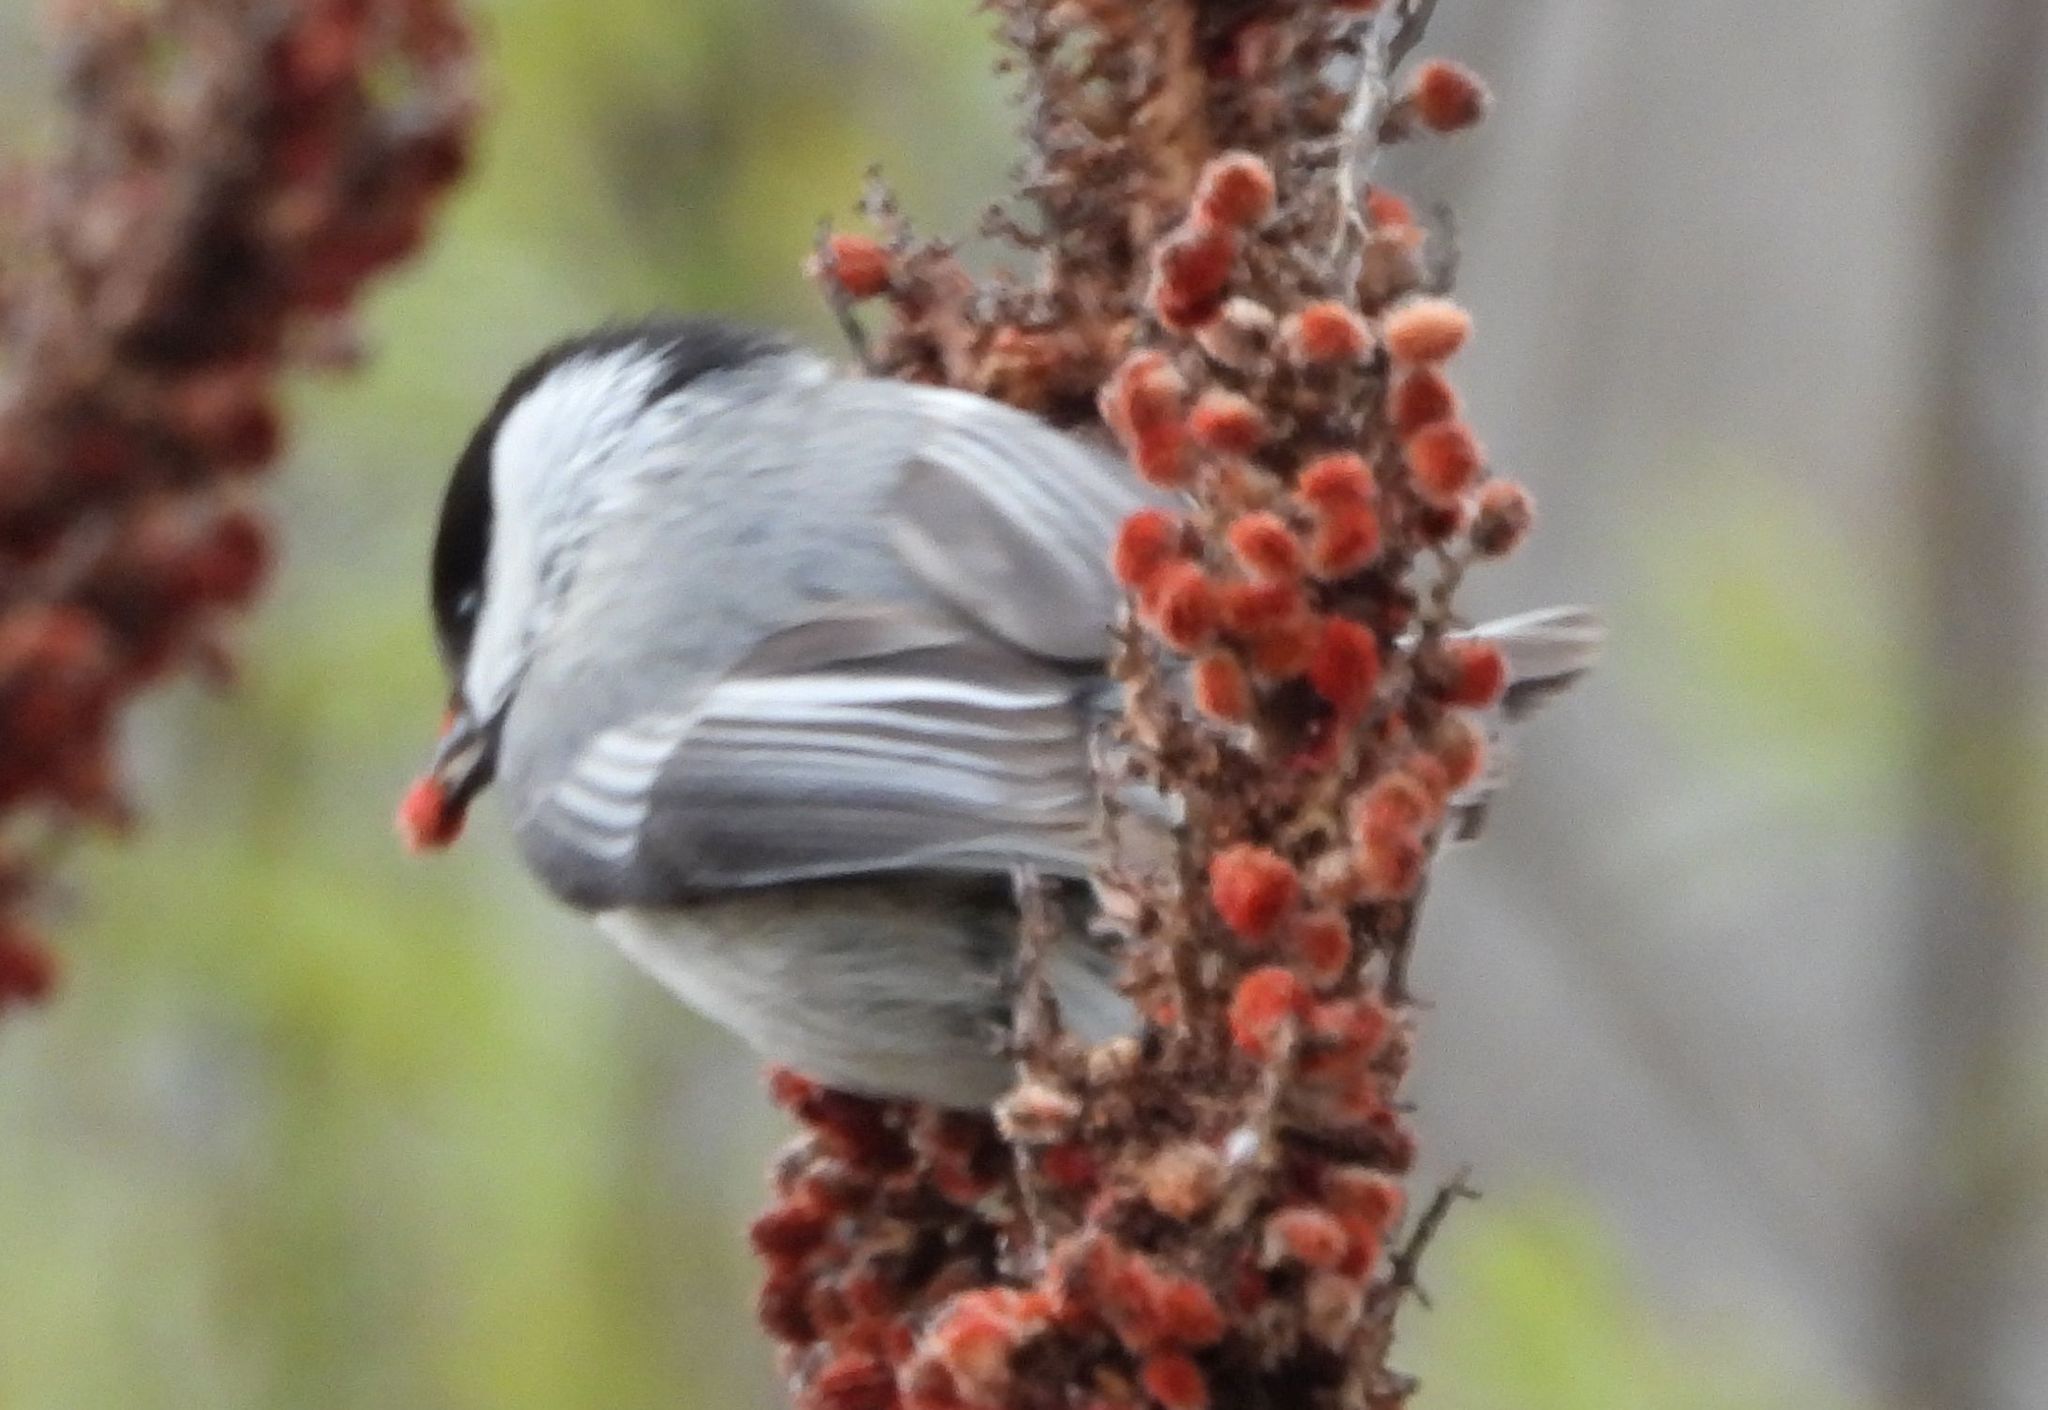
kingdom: Animalia
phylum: Chordata
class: Aves
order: Passeriformes
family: Paridae
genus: Poecile
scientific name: Poecile atricapillus
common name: Black-capped chickadee
